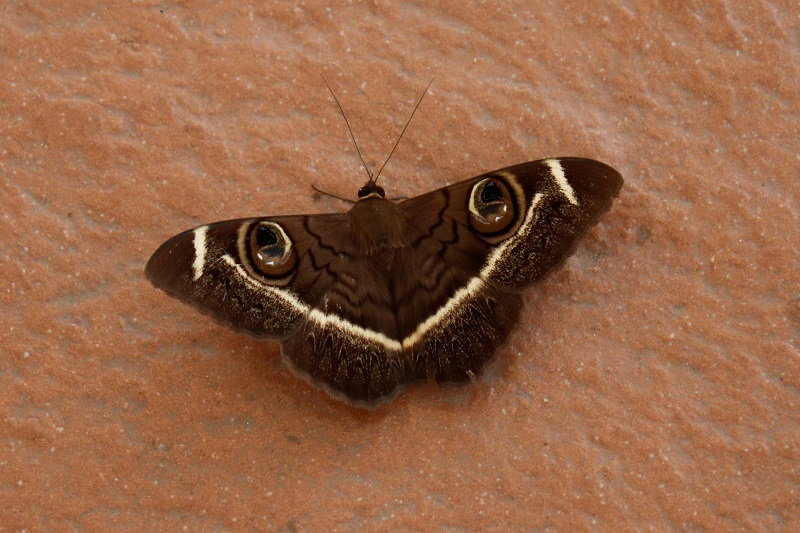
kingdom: Animalia
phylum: Arthropoda
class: Insecta
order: Lepidoptera
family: Erebidae
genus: Cyligramma
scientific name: Cyligramma latona
